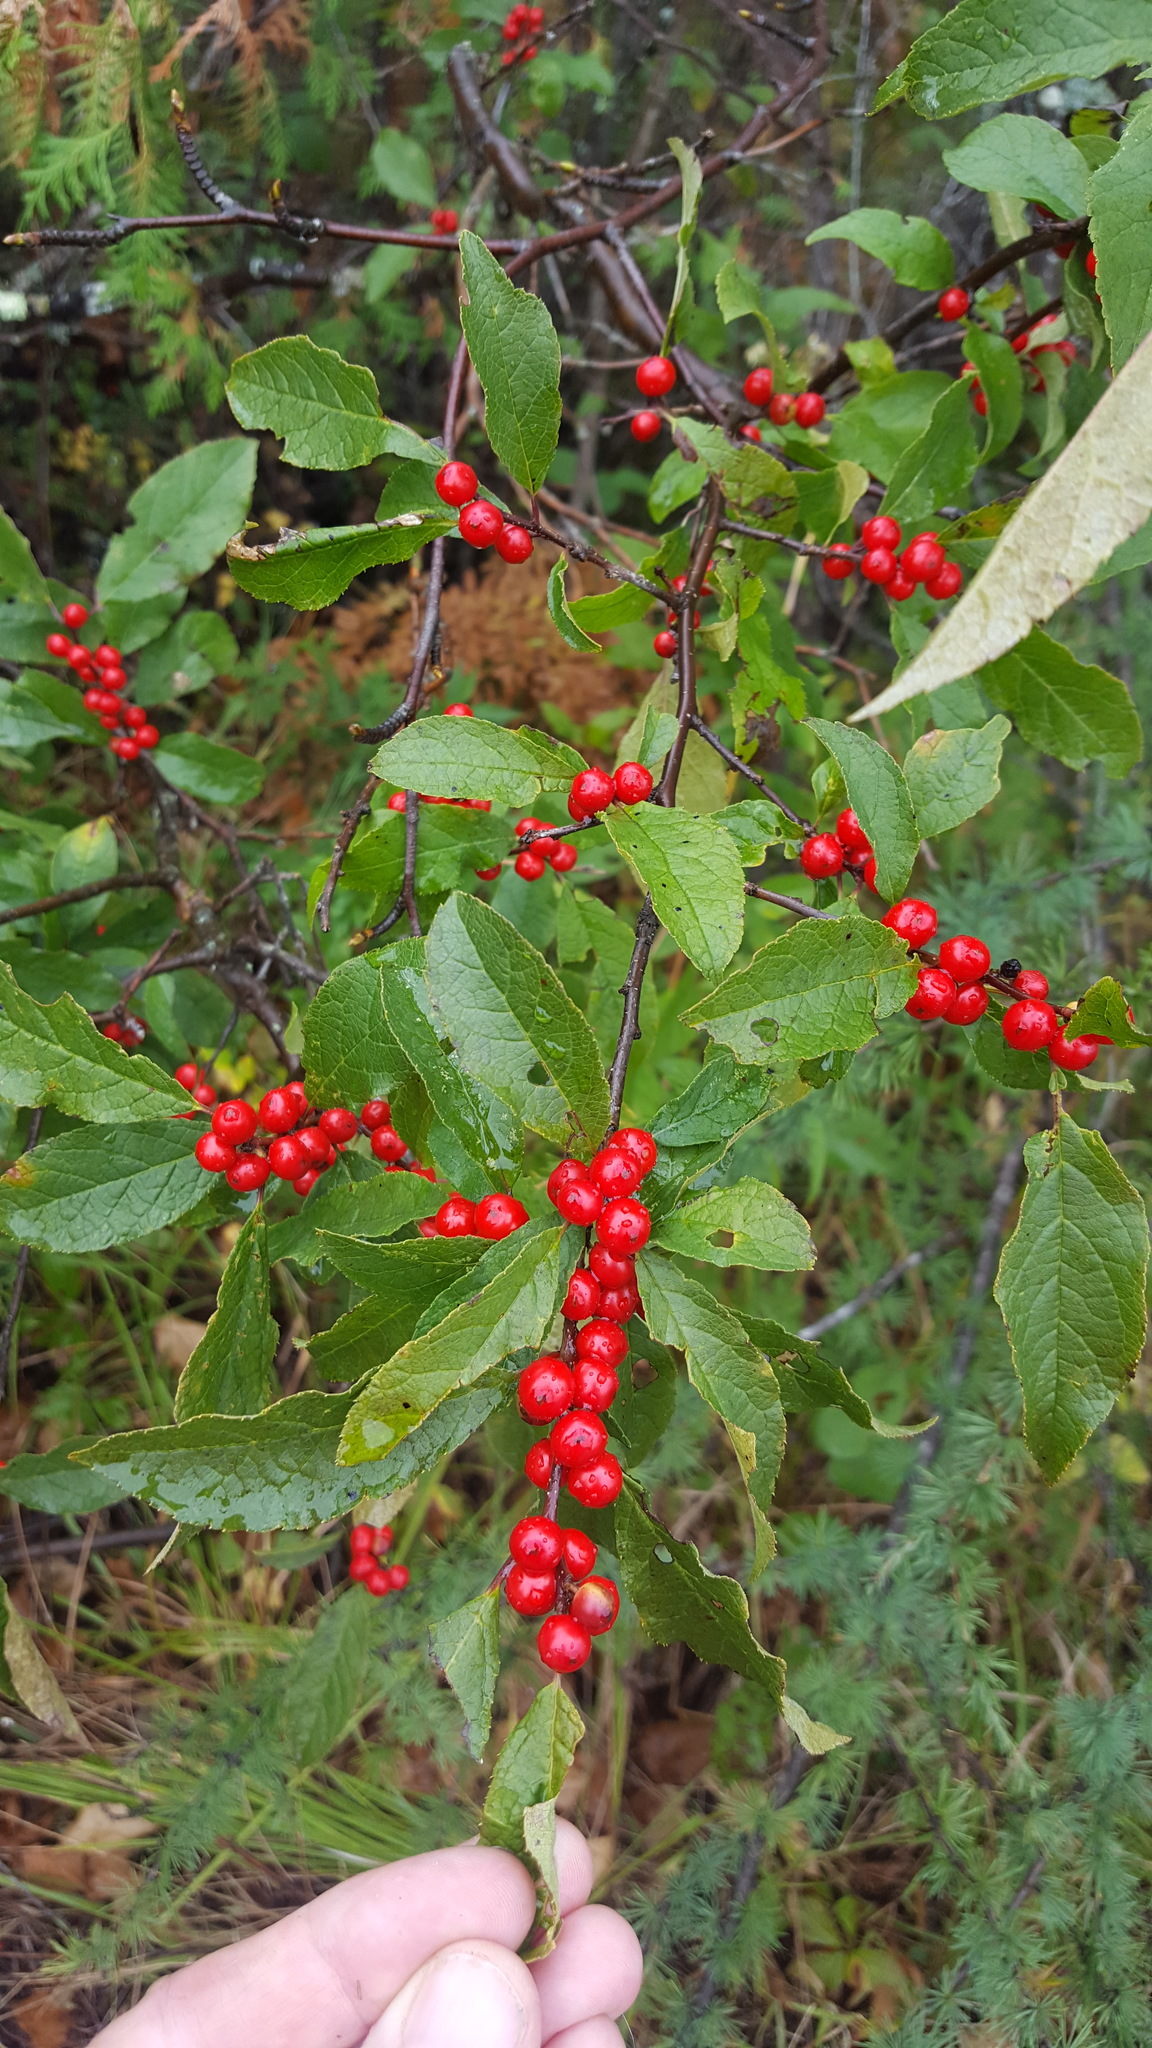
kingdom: Plantae
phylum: Tracheophyta
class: Magnoliopsida
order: Aquifoliales
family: Aquifoliaceae
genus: Ilex
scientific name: Ilex verticillata
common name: Virginia winterberry
